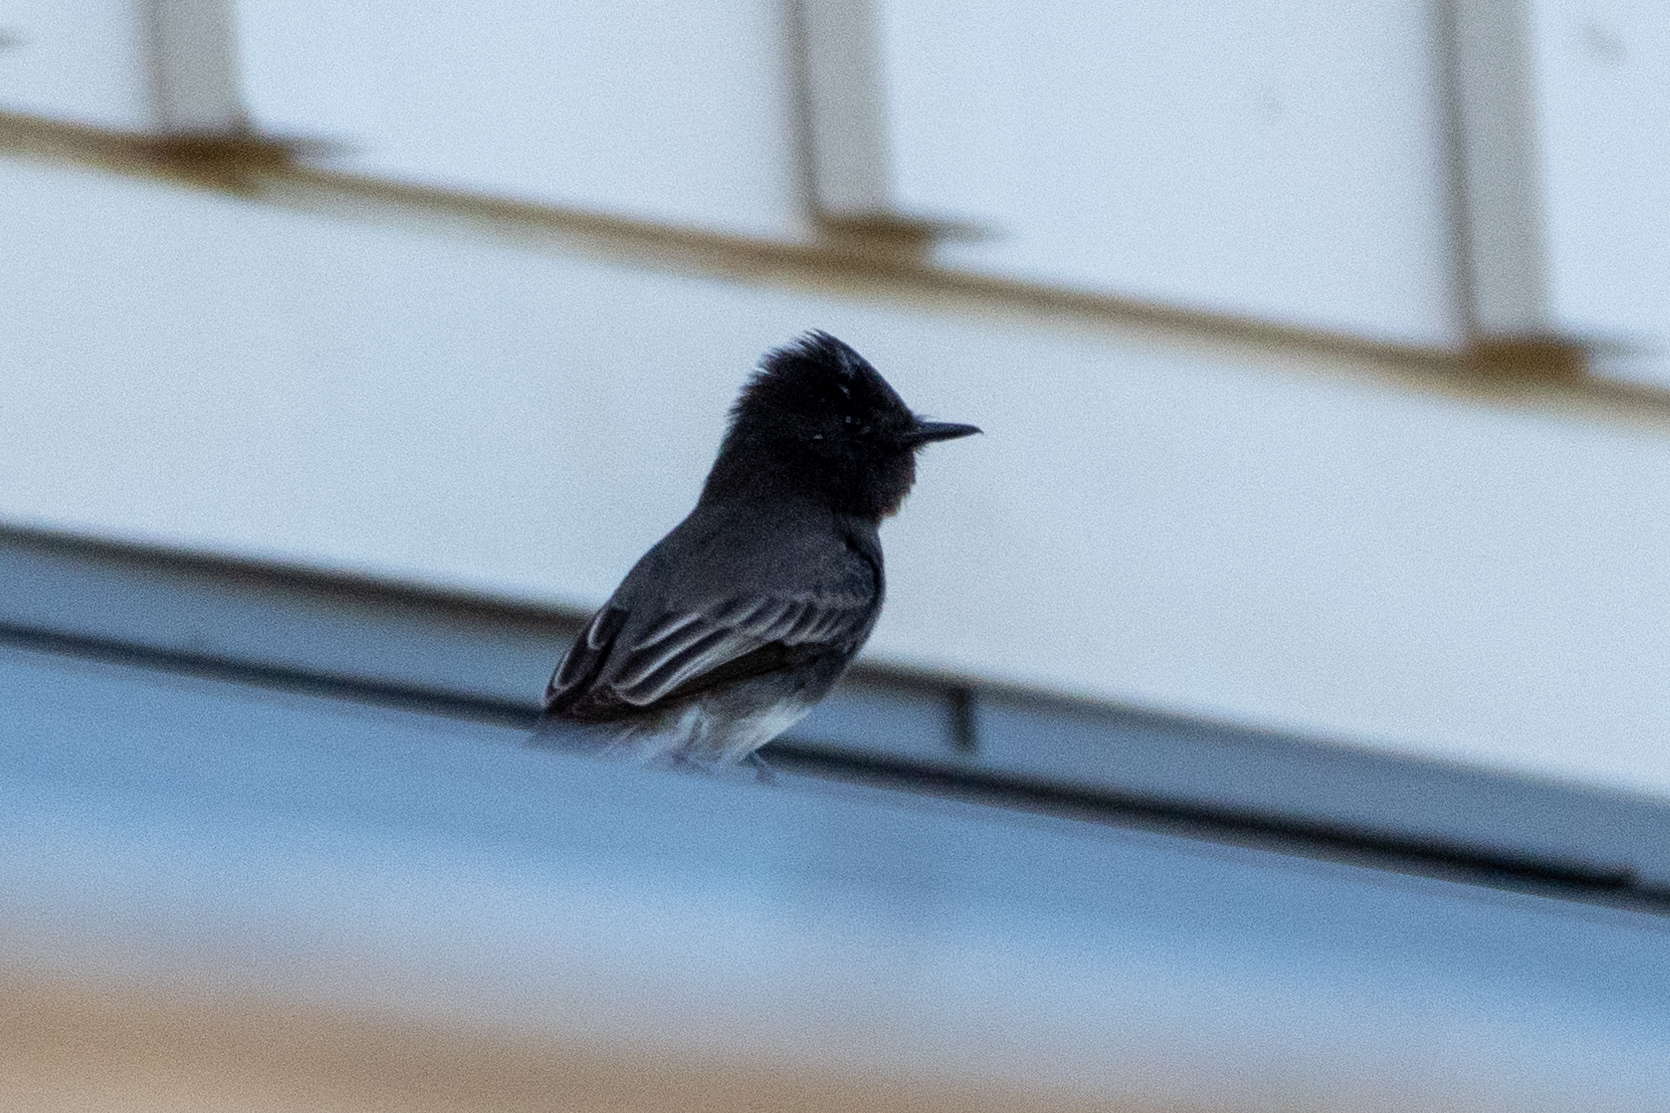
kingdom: Animalia
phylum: Chordata
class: Aves
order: Passeriformes
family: Tyrannidae
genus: Sayornis
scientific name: Sayornis nigricans
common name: Black phoebe
